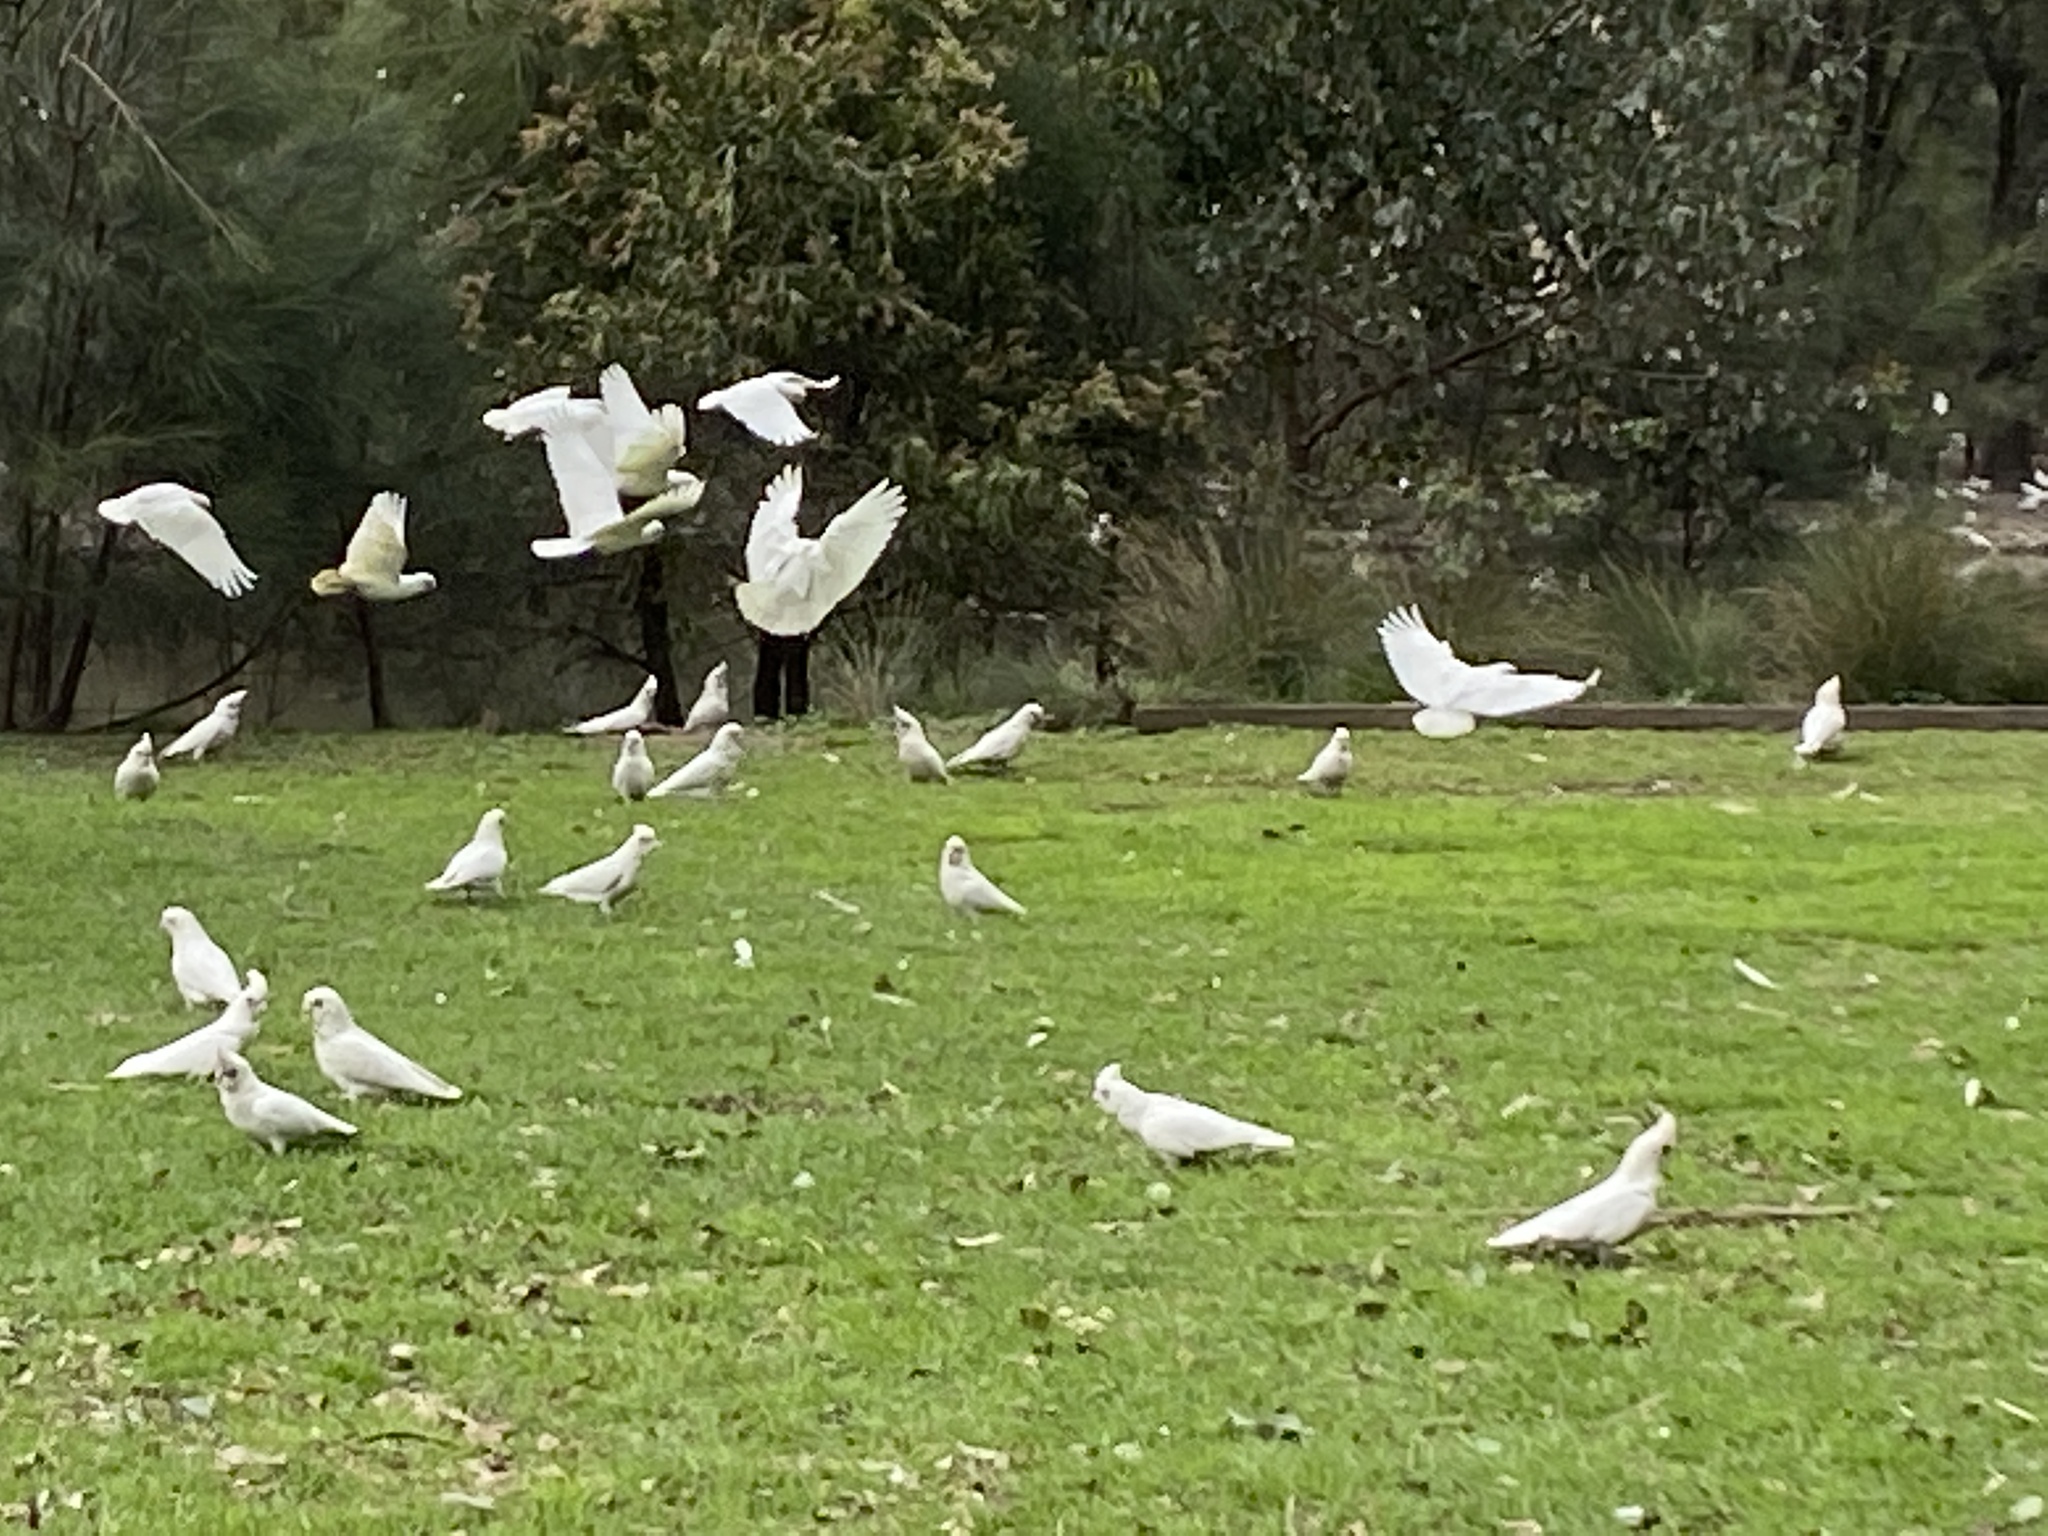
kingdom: Animalia
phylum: Chordata
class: Aves
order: Psittaciformes
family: Psittacidae
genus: Cacatua
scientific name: Cacatua sanguinea
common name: Little corella
